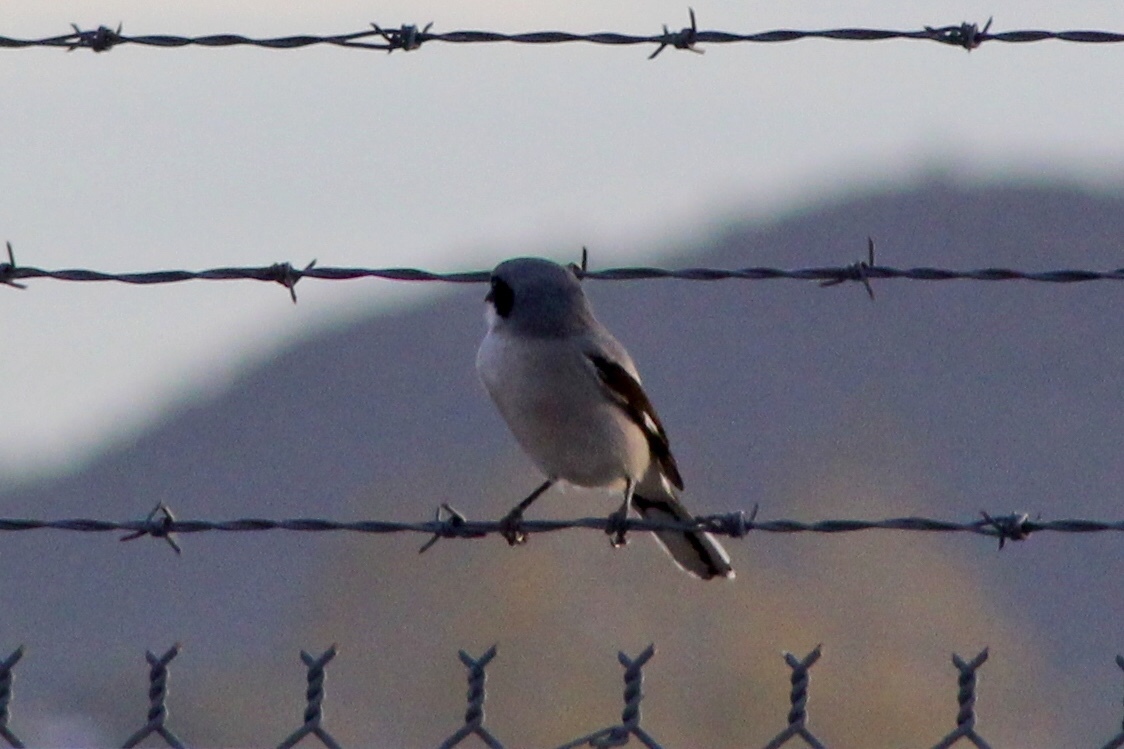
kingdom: Animalia
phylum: Chordata
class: Aves
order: Passeriformes
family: Laniidae
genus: Lanius
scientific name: Lanius ludovicianus
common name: Loggerhead shrike
